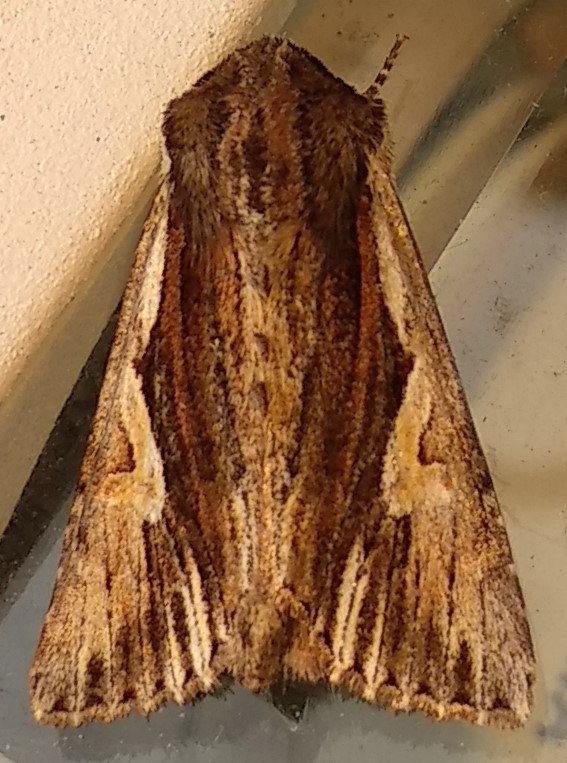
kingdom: Animalia
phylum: Arthropoda
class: Insecta
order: Lepidoptera
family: Noctuidae
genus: Achatia
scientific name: Achatia evicta
